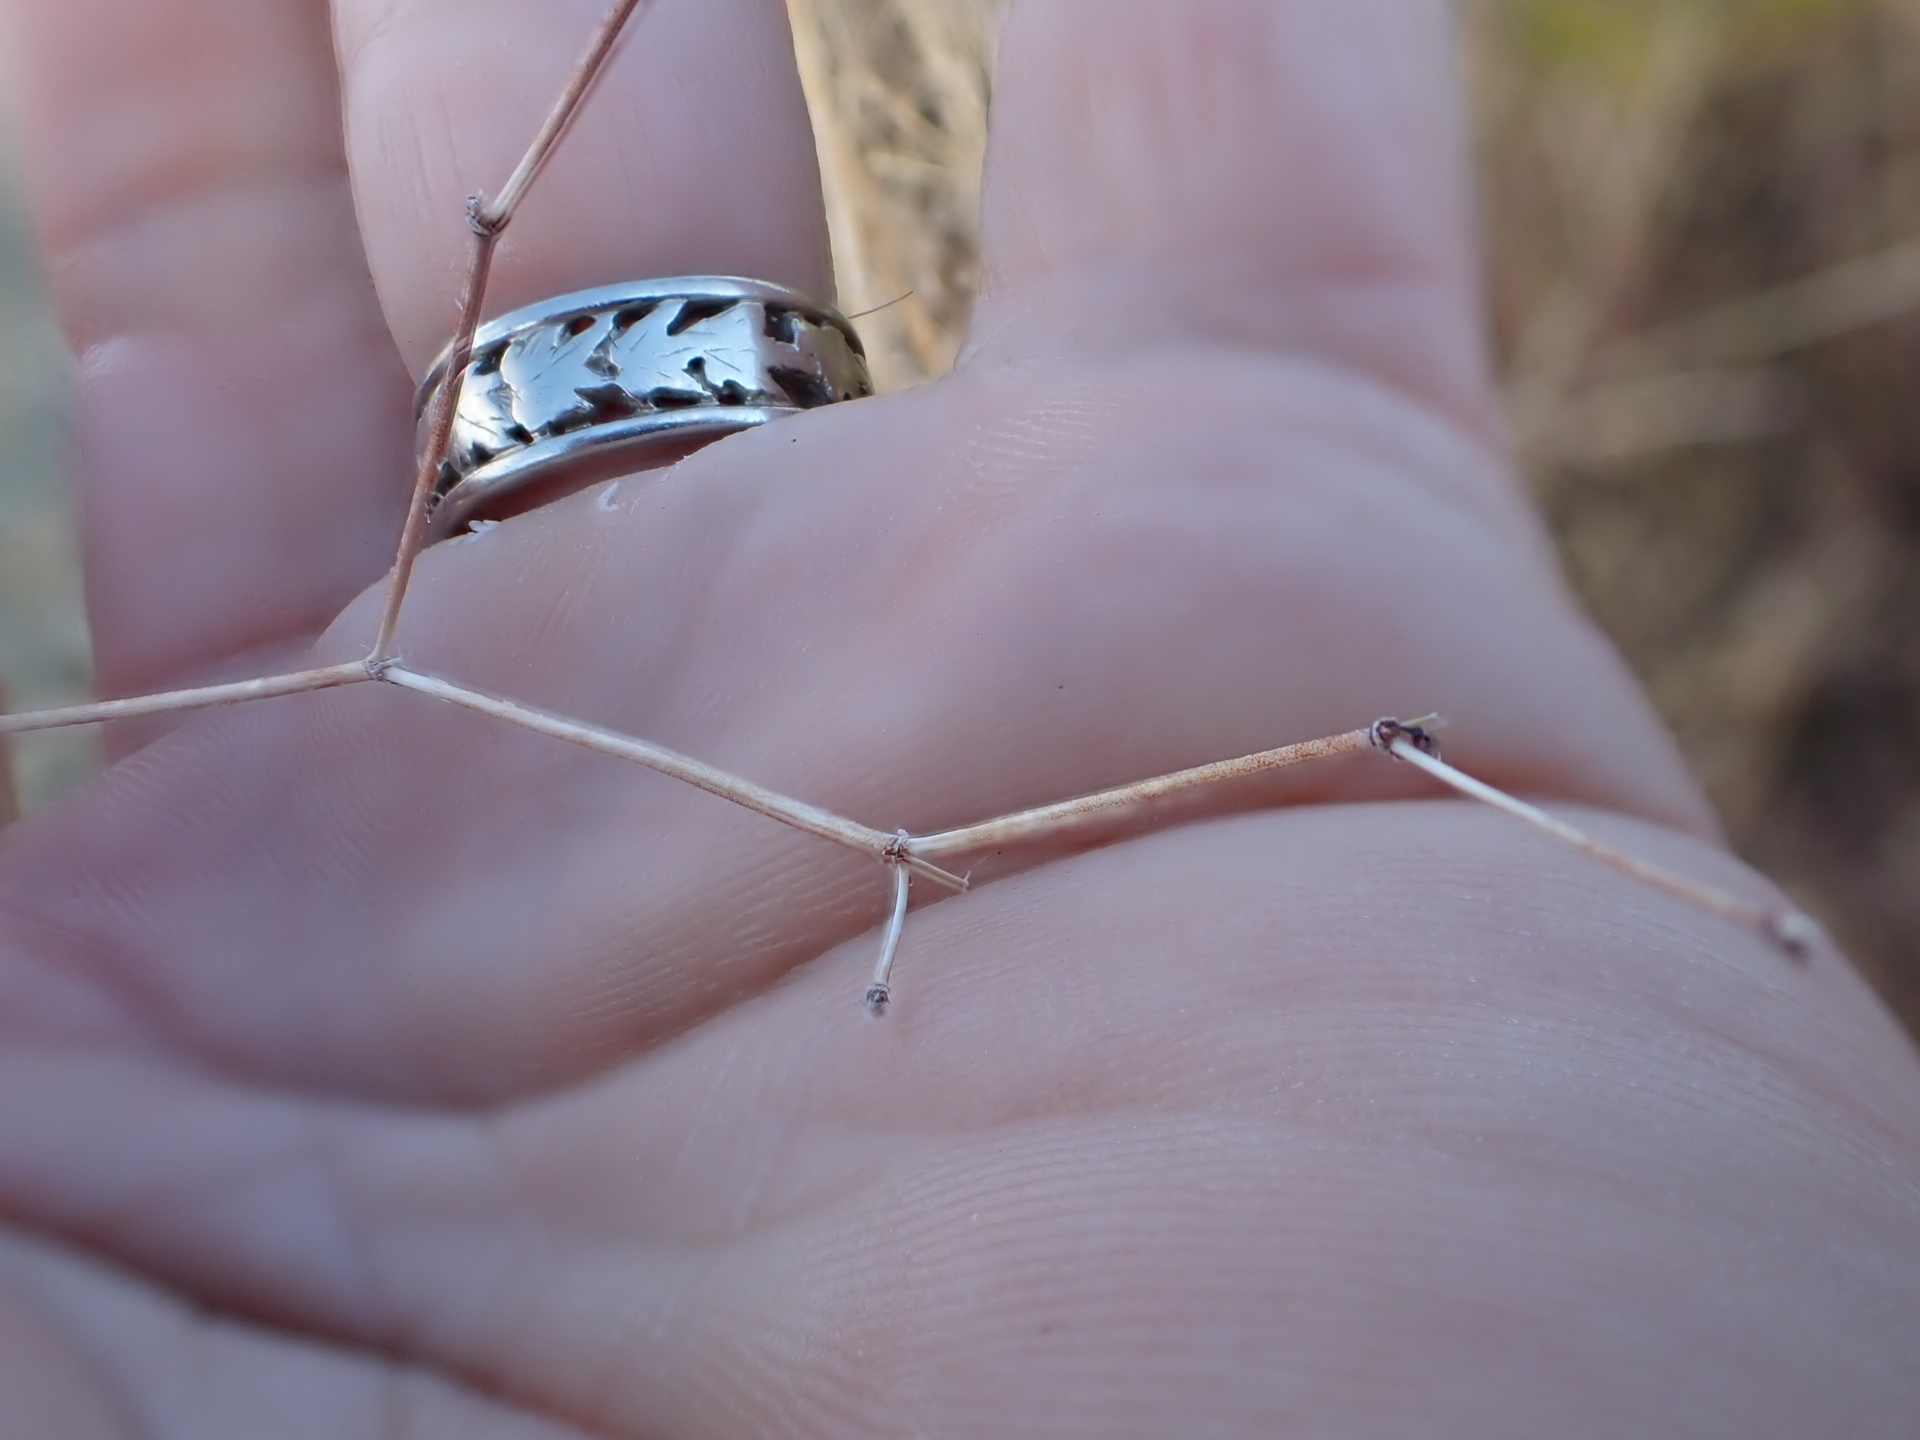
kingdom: Plantae
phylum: Tracheophyta
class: Magnoliopsida
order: Caryophyllales
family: Polygonaceae
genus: Eriogonum
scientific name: Eriogonum inflatum
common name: Desert trumpet
